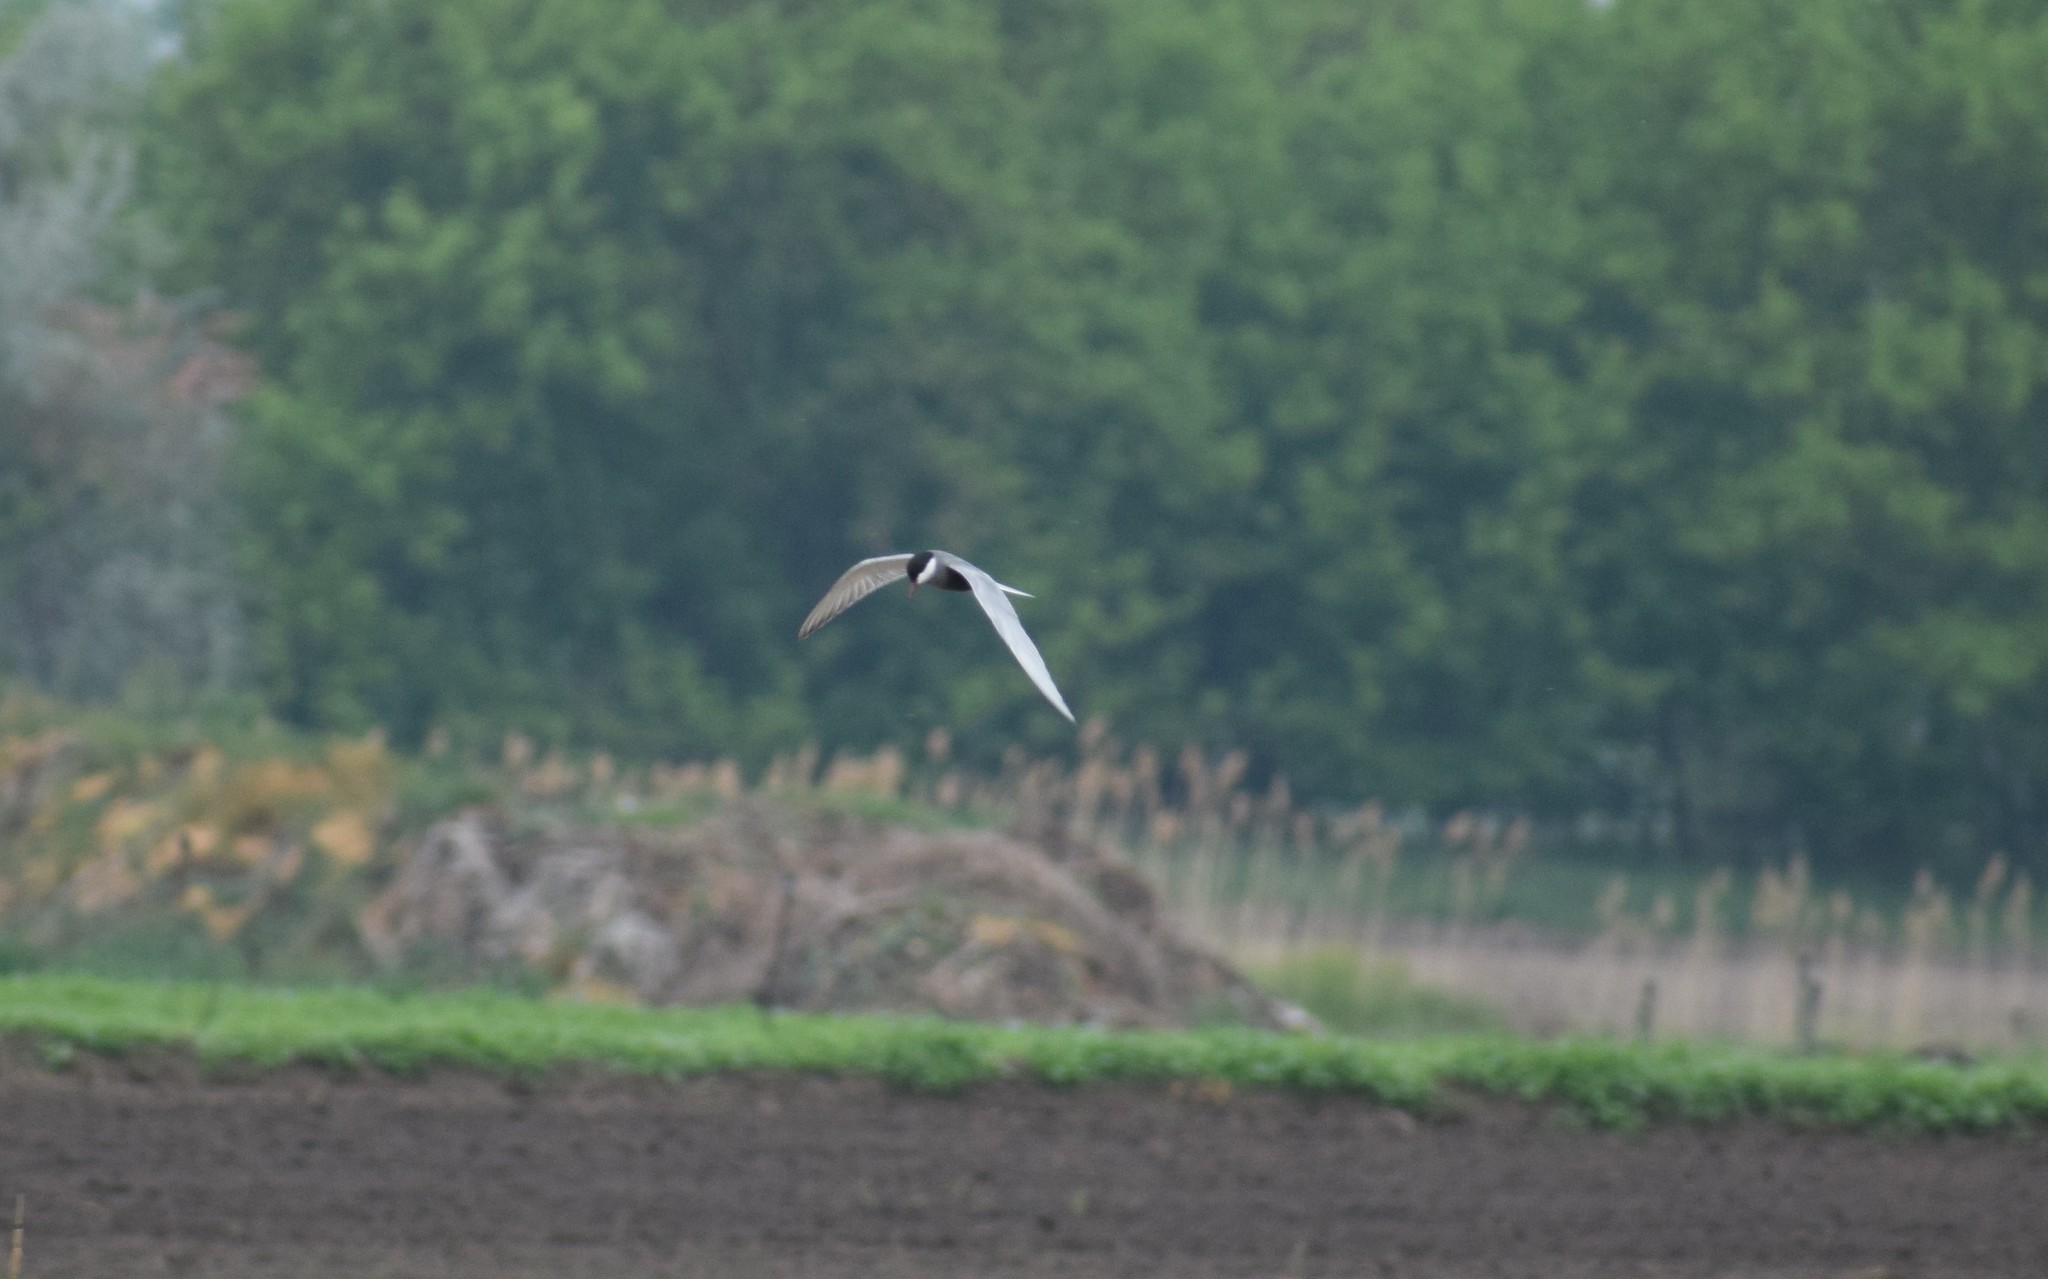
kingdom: Animalia
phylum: Chordata
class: Aves
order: Charadriiformes
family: Laridae
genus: Chlidonias
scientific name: Chlidonias hybrida
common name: Whiskered tern
